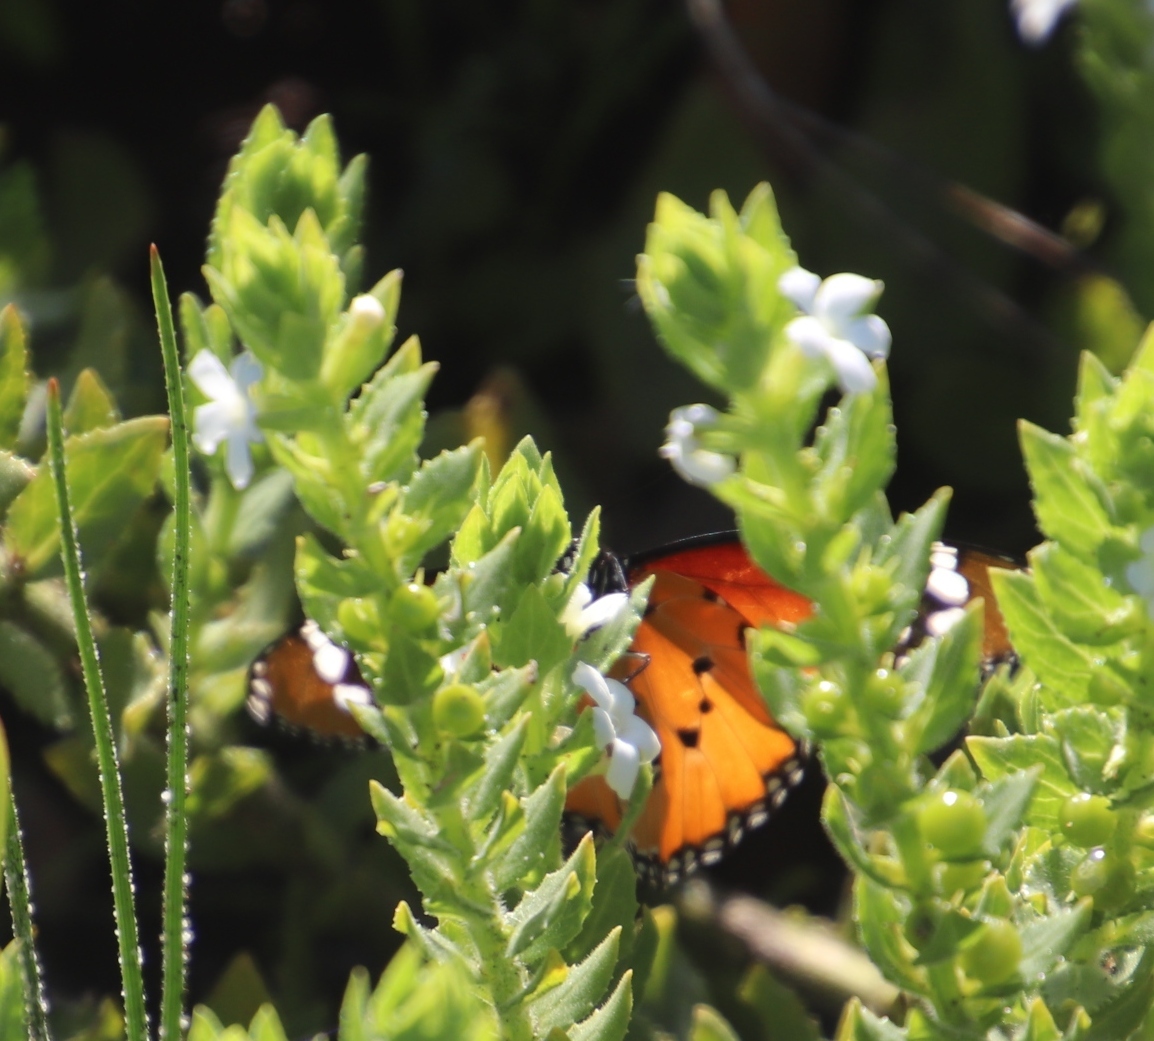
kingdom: Animalia
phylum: Arthropoda
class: Insecta
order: Lepidoptera
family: Nymphalidae
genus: Danaus
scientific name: Danaus chrysippus
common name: Plain tiger
